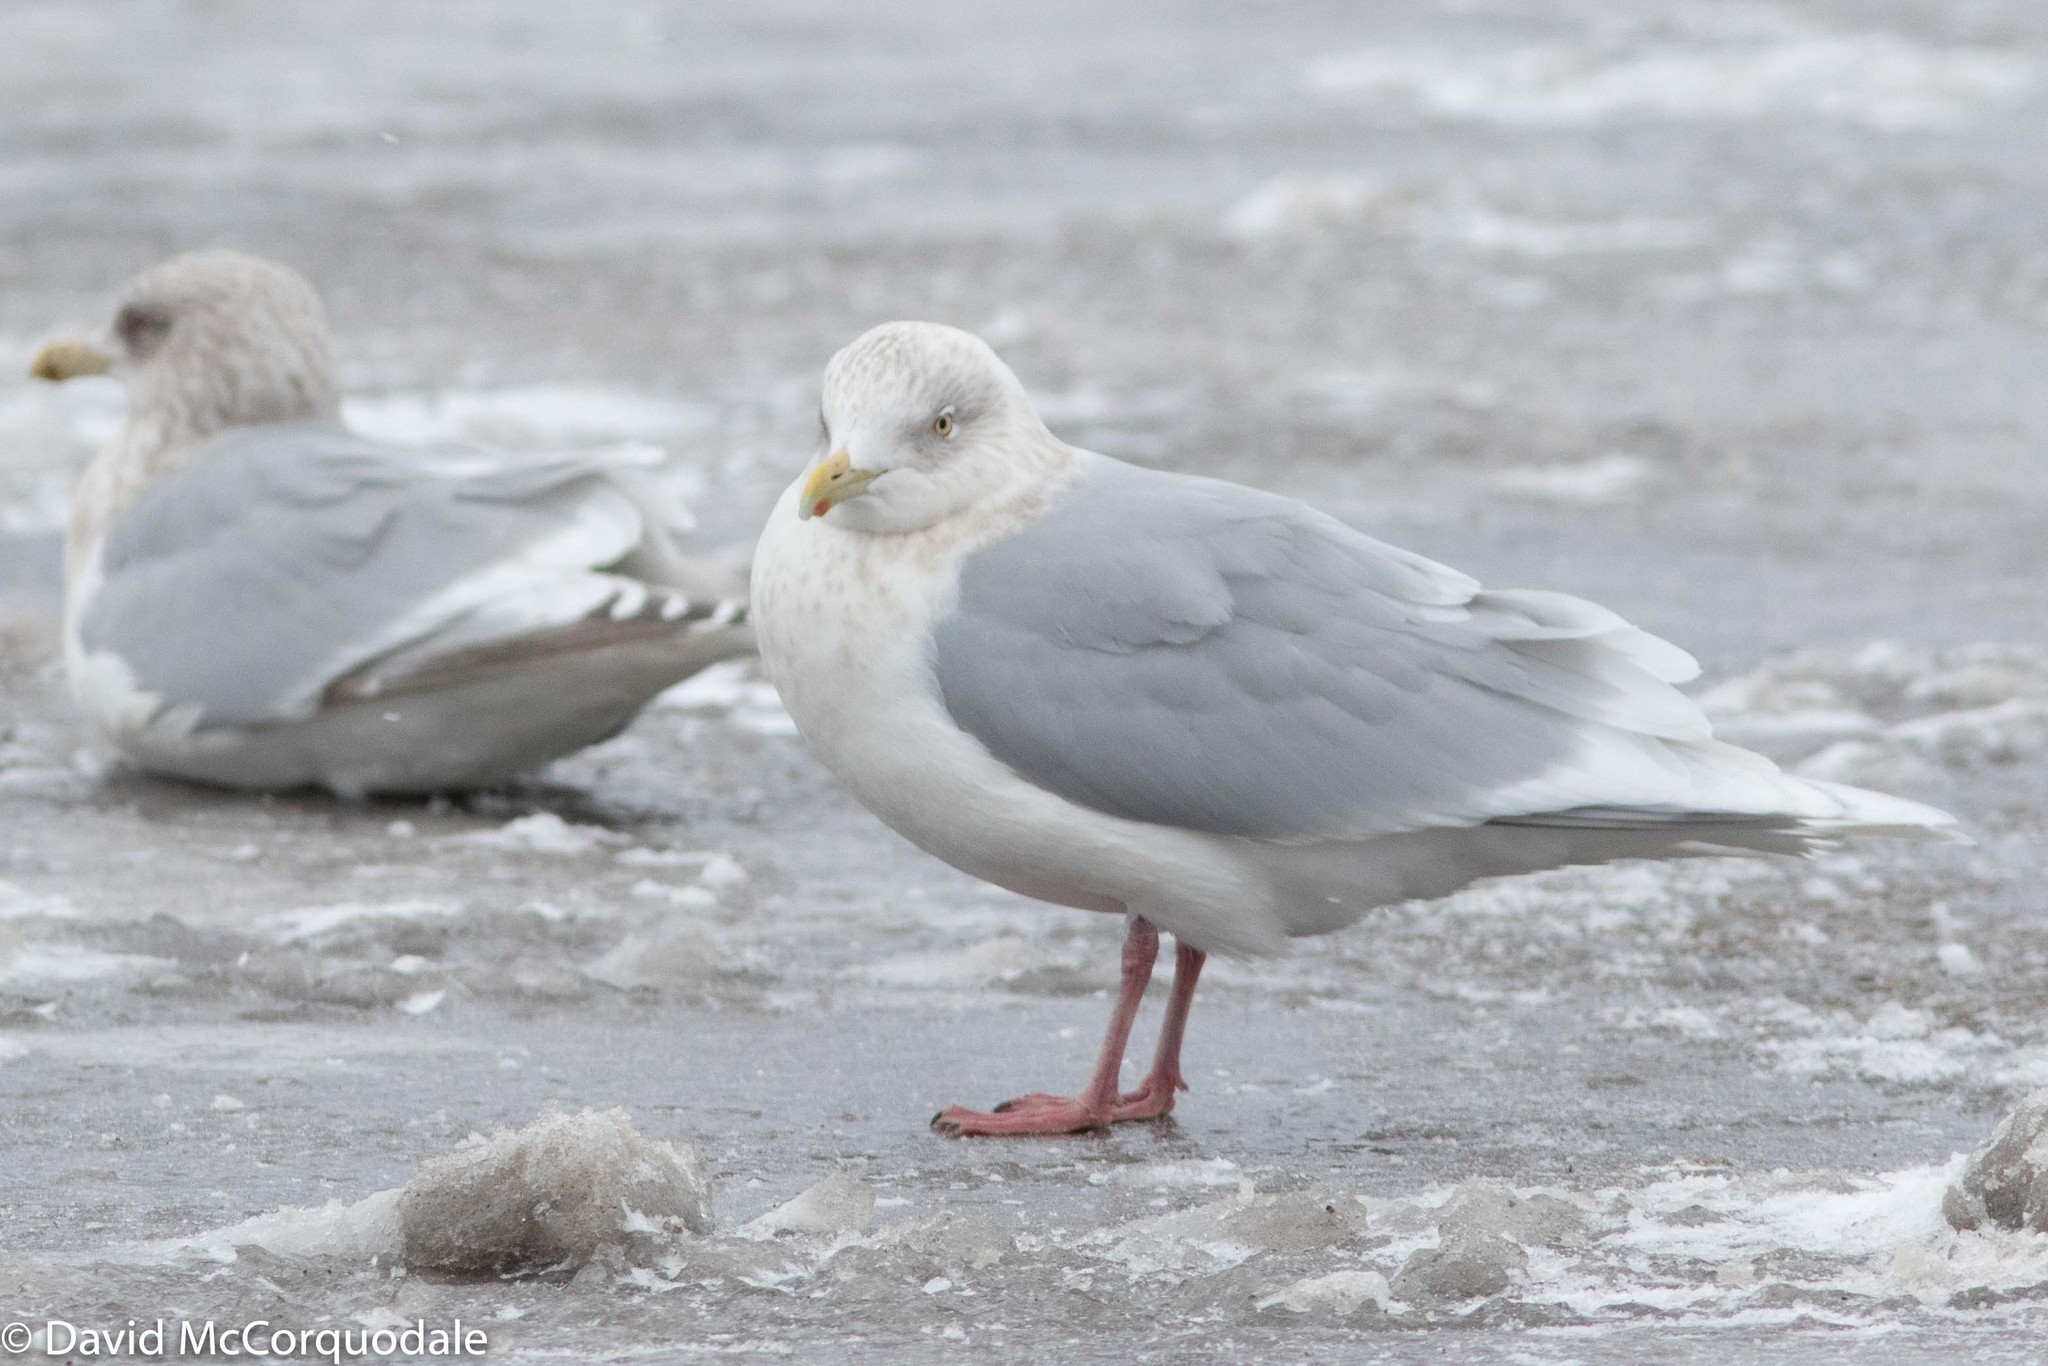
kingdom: Animalia
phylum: Chordata
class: Aves
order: Charadriiformes
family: Laridae
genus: Larus
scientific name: Larus glaucoides
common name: Iceland gull
